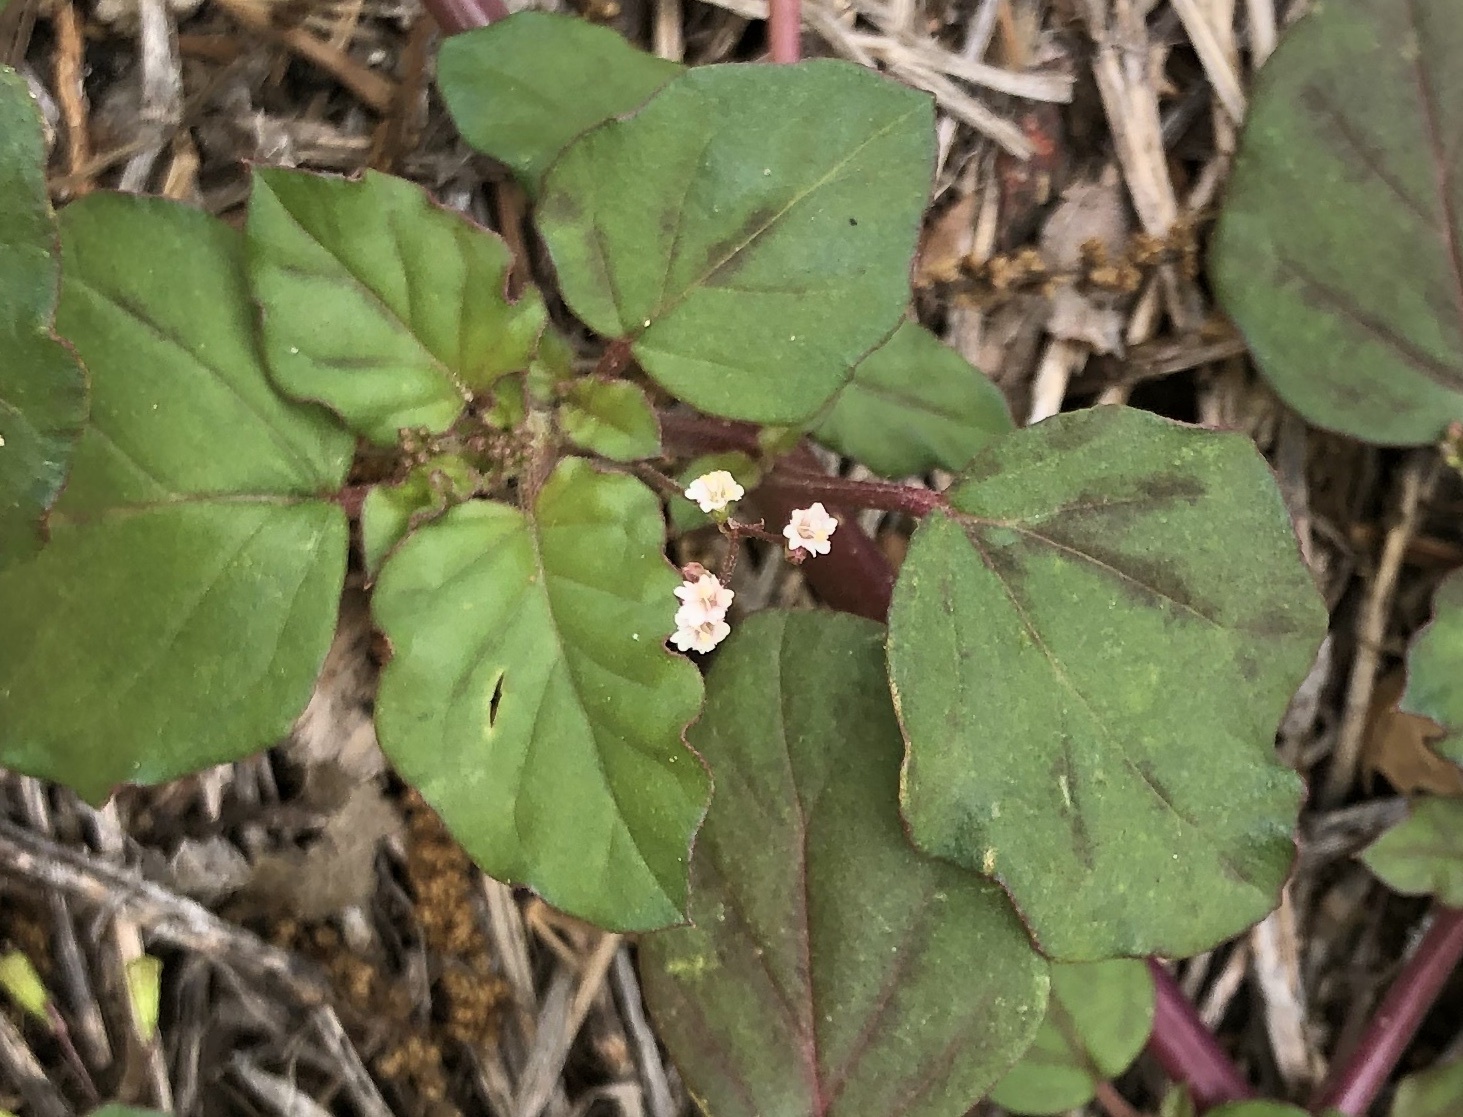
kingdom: Plantae
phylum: Tracheophyta
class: Magnoliopsida
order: Caryophyllales
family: Nyctaginaceae
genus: Boerhavia
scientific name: Boerhavia erecta
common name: Erect spiderling
